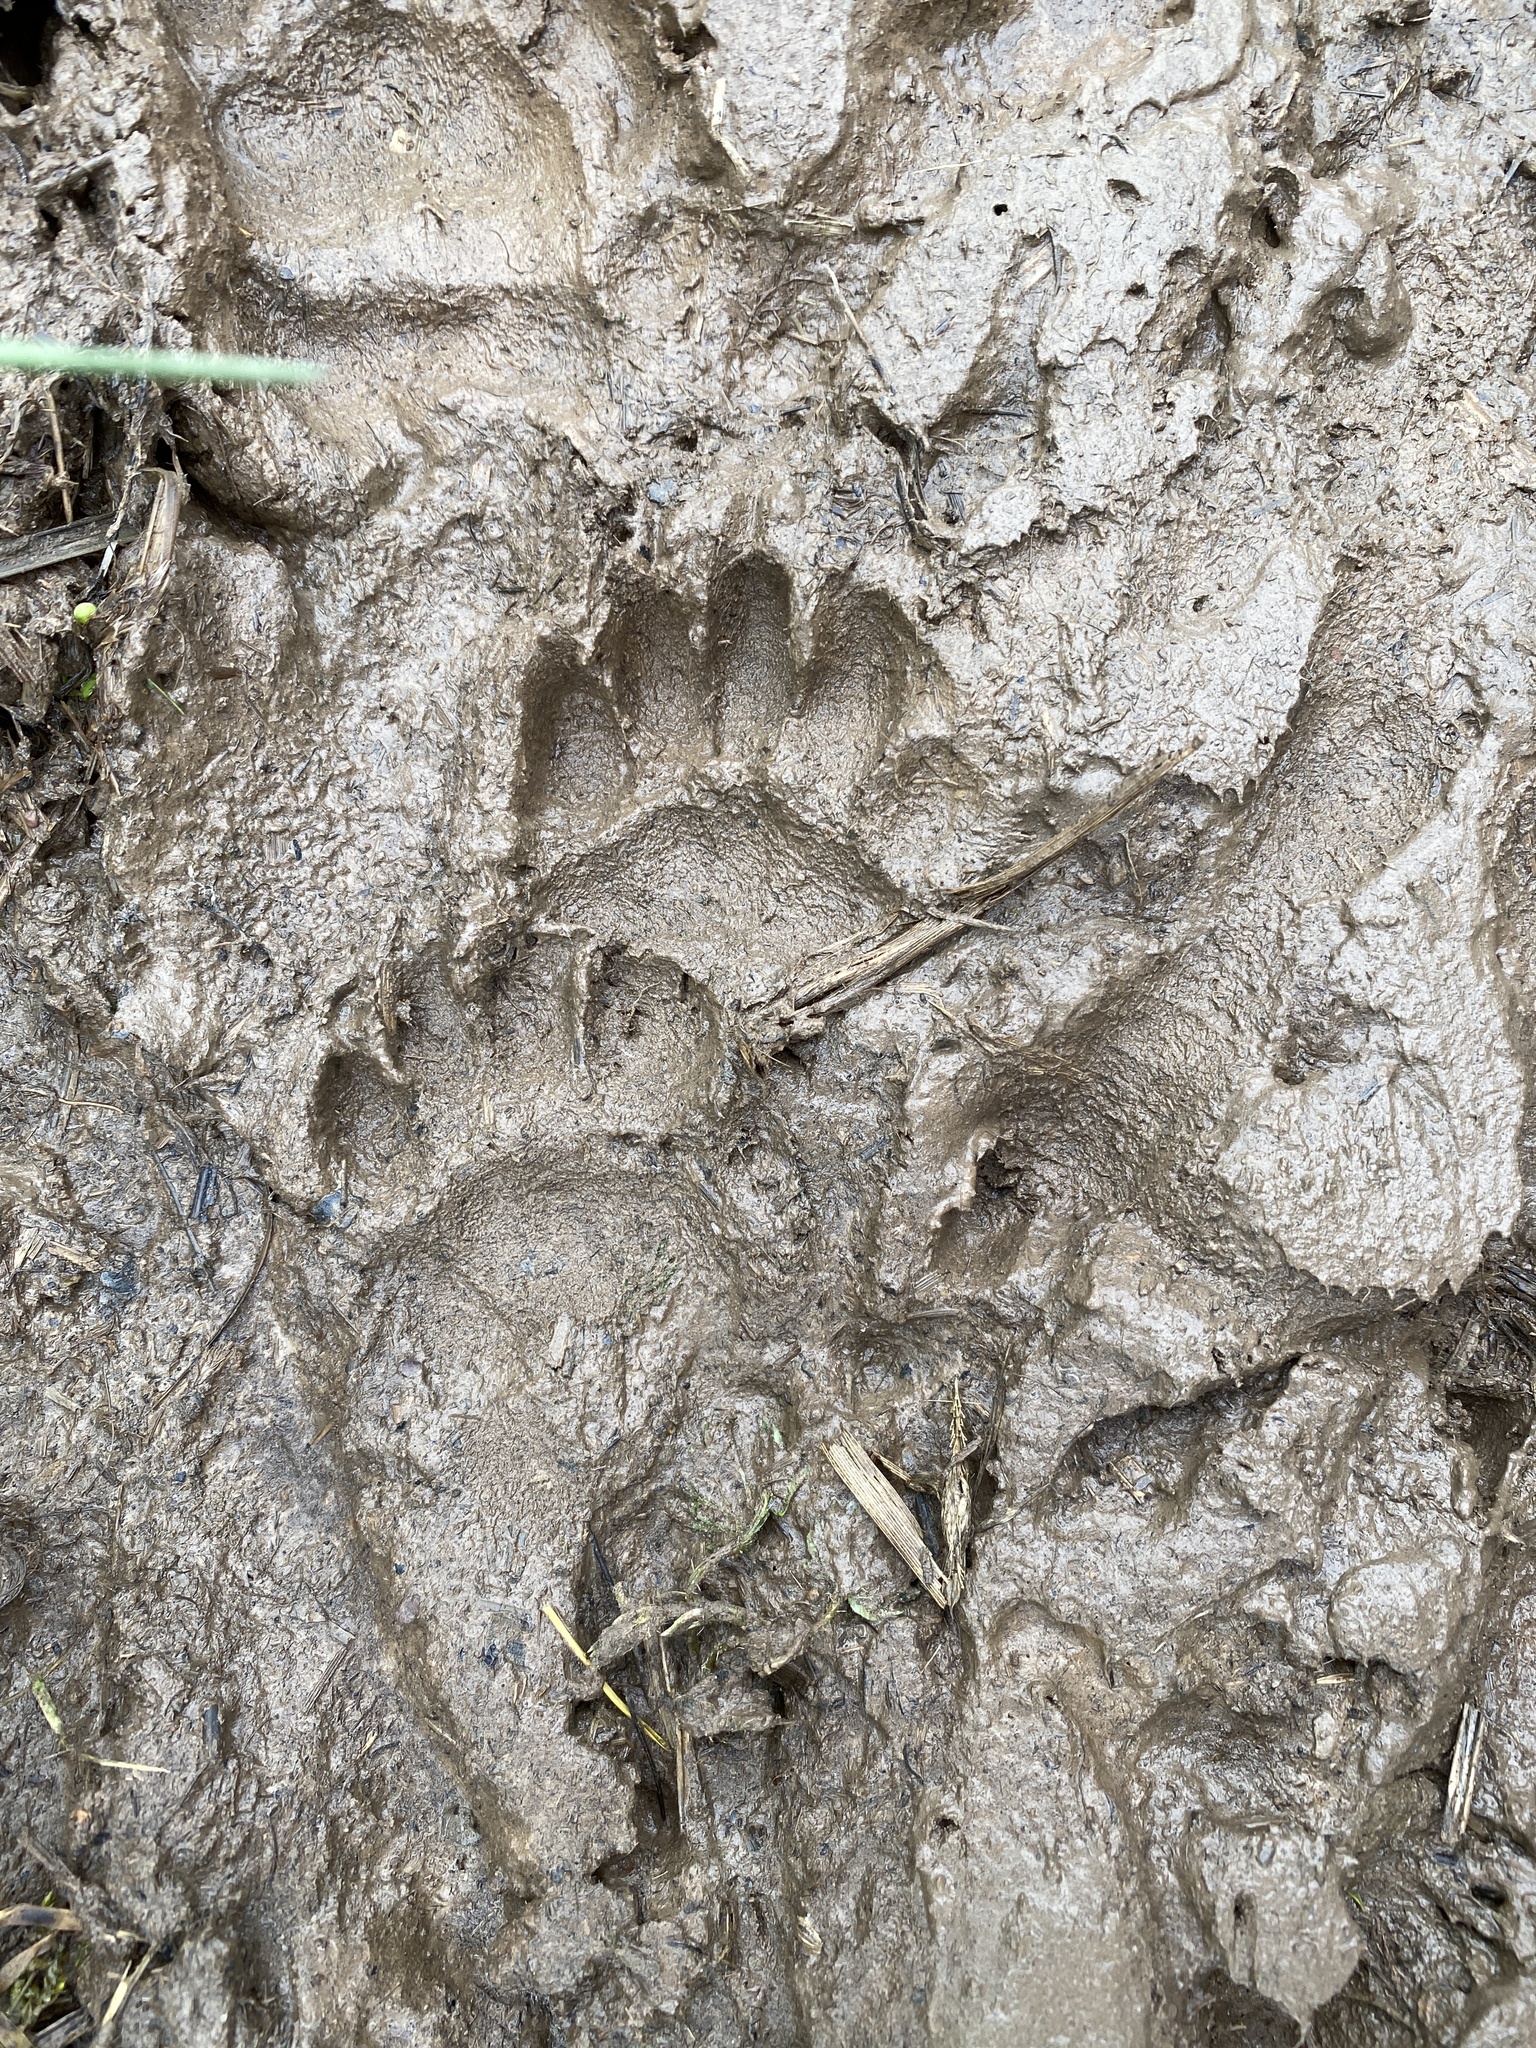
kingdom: Animalia
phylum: Chordata
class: Mammalia
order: Carnivora
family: Mustelidae
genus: Meles
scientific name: Meles meles
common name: Eurasian badger
